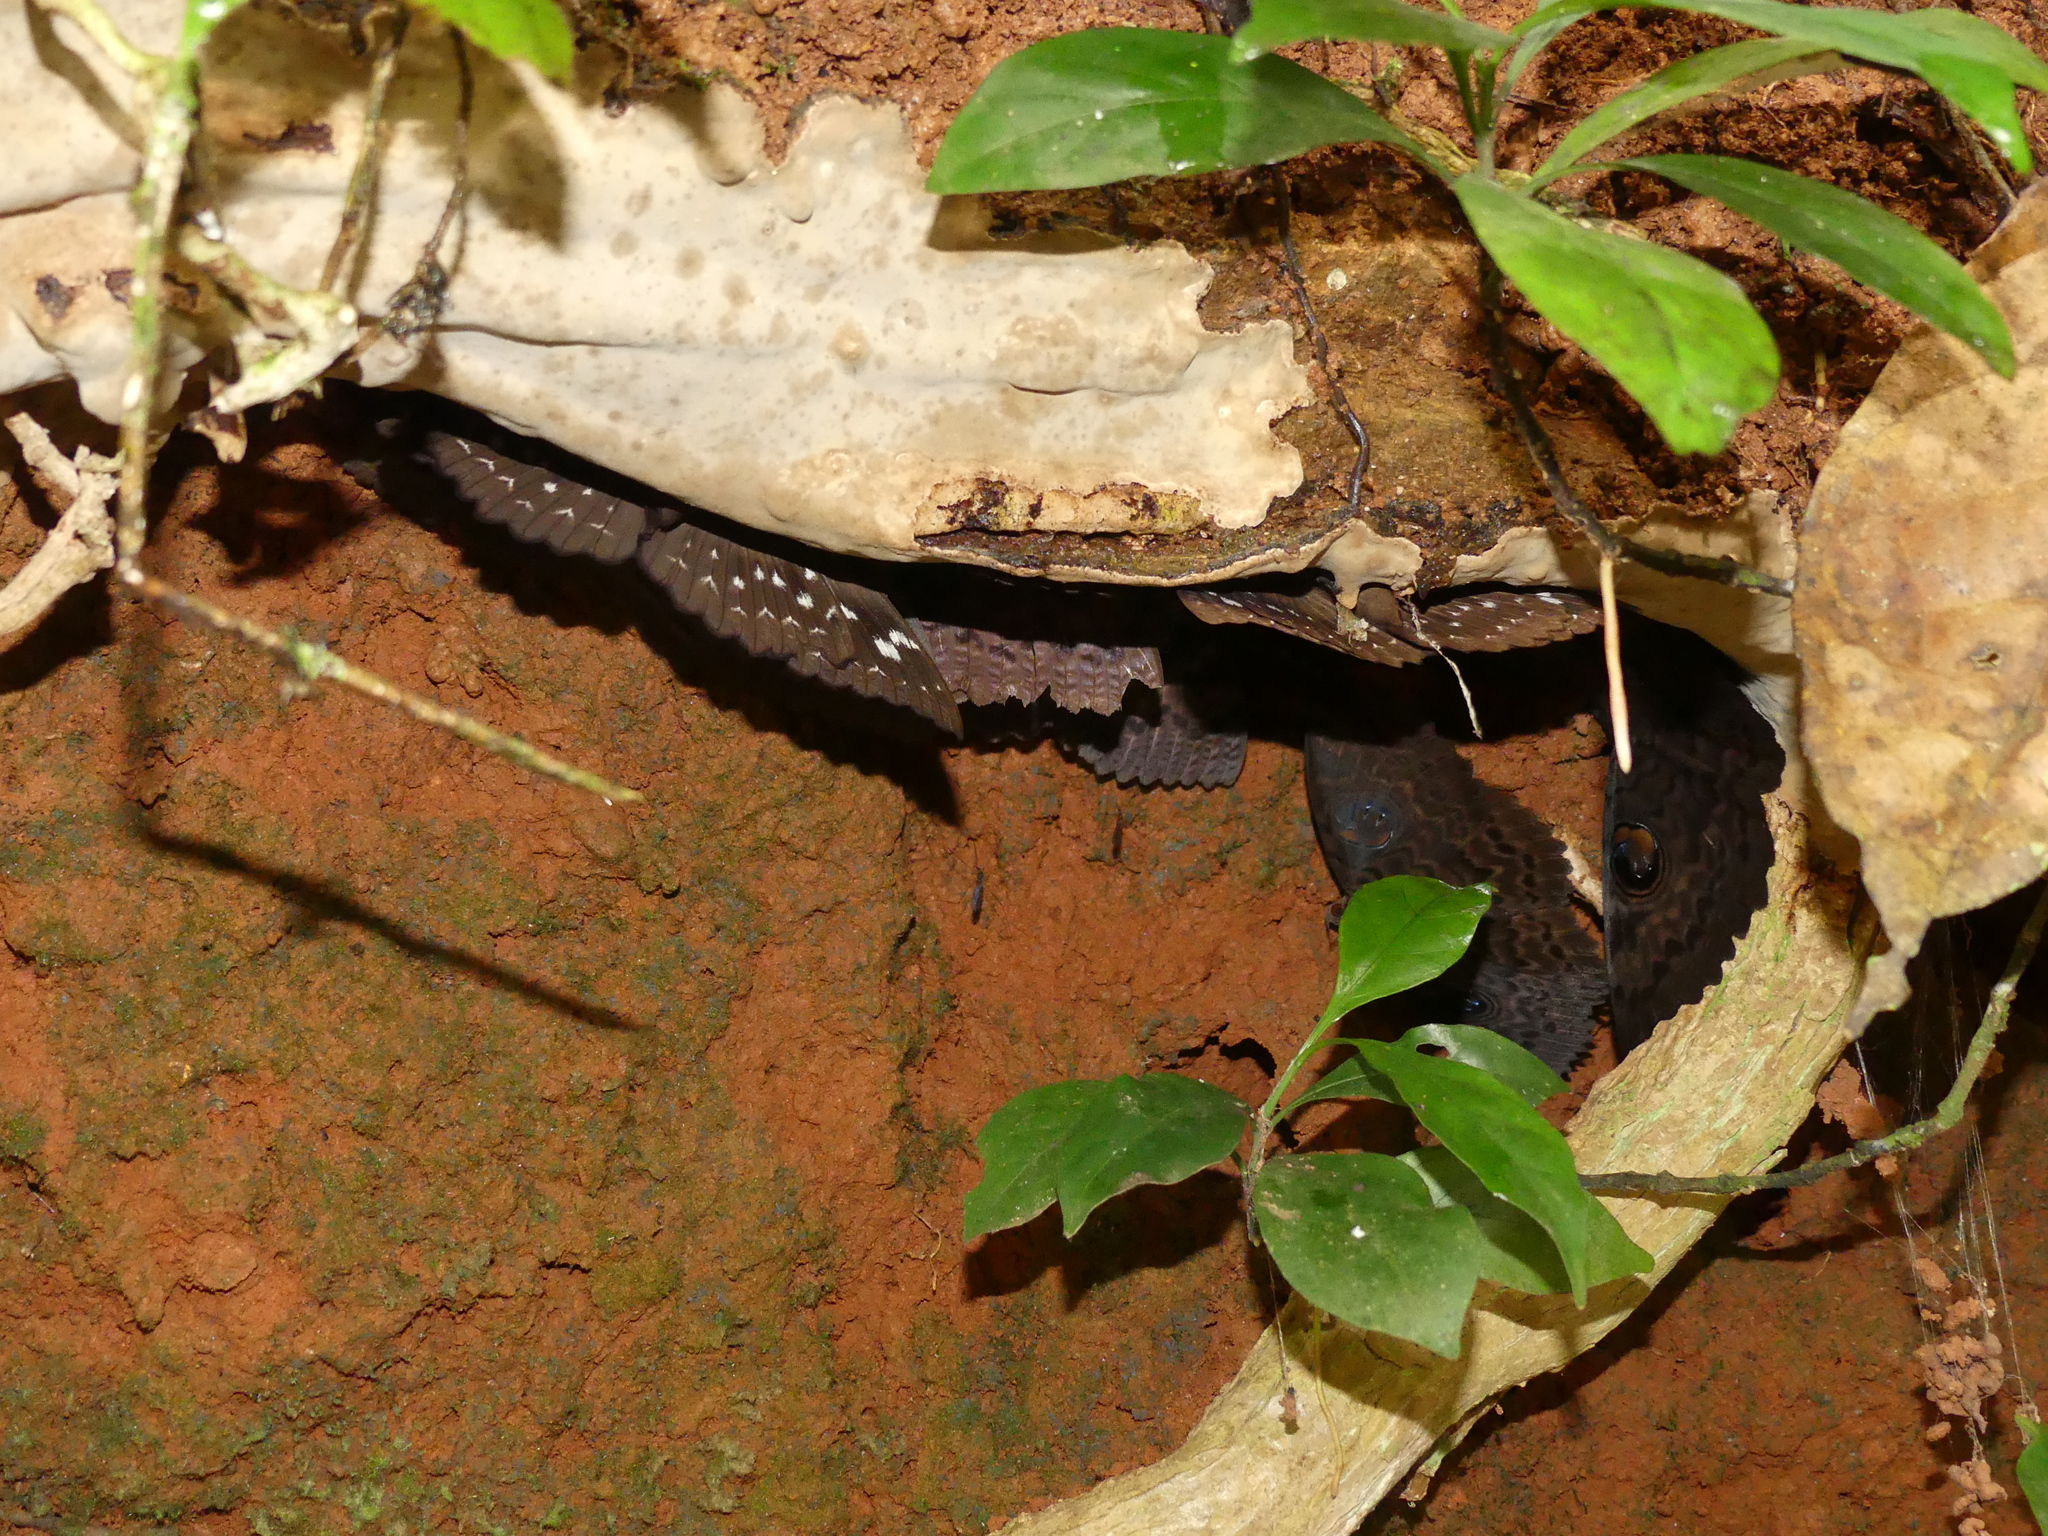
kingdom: Animalia
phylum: Arthropoda
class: Insecta
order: Lepidoptera
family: Erebidae
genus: Erebus
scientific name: Erebus walkeri
